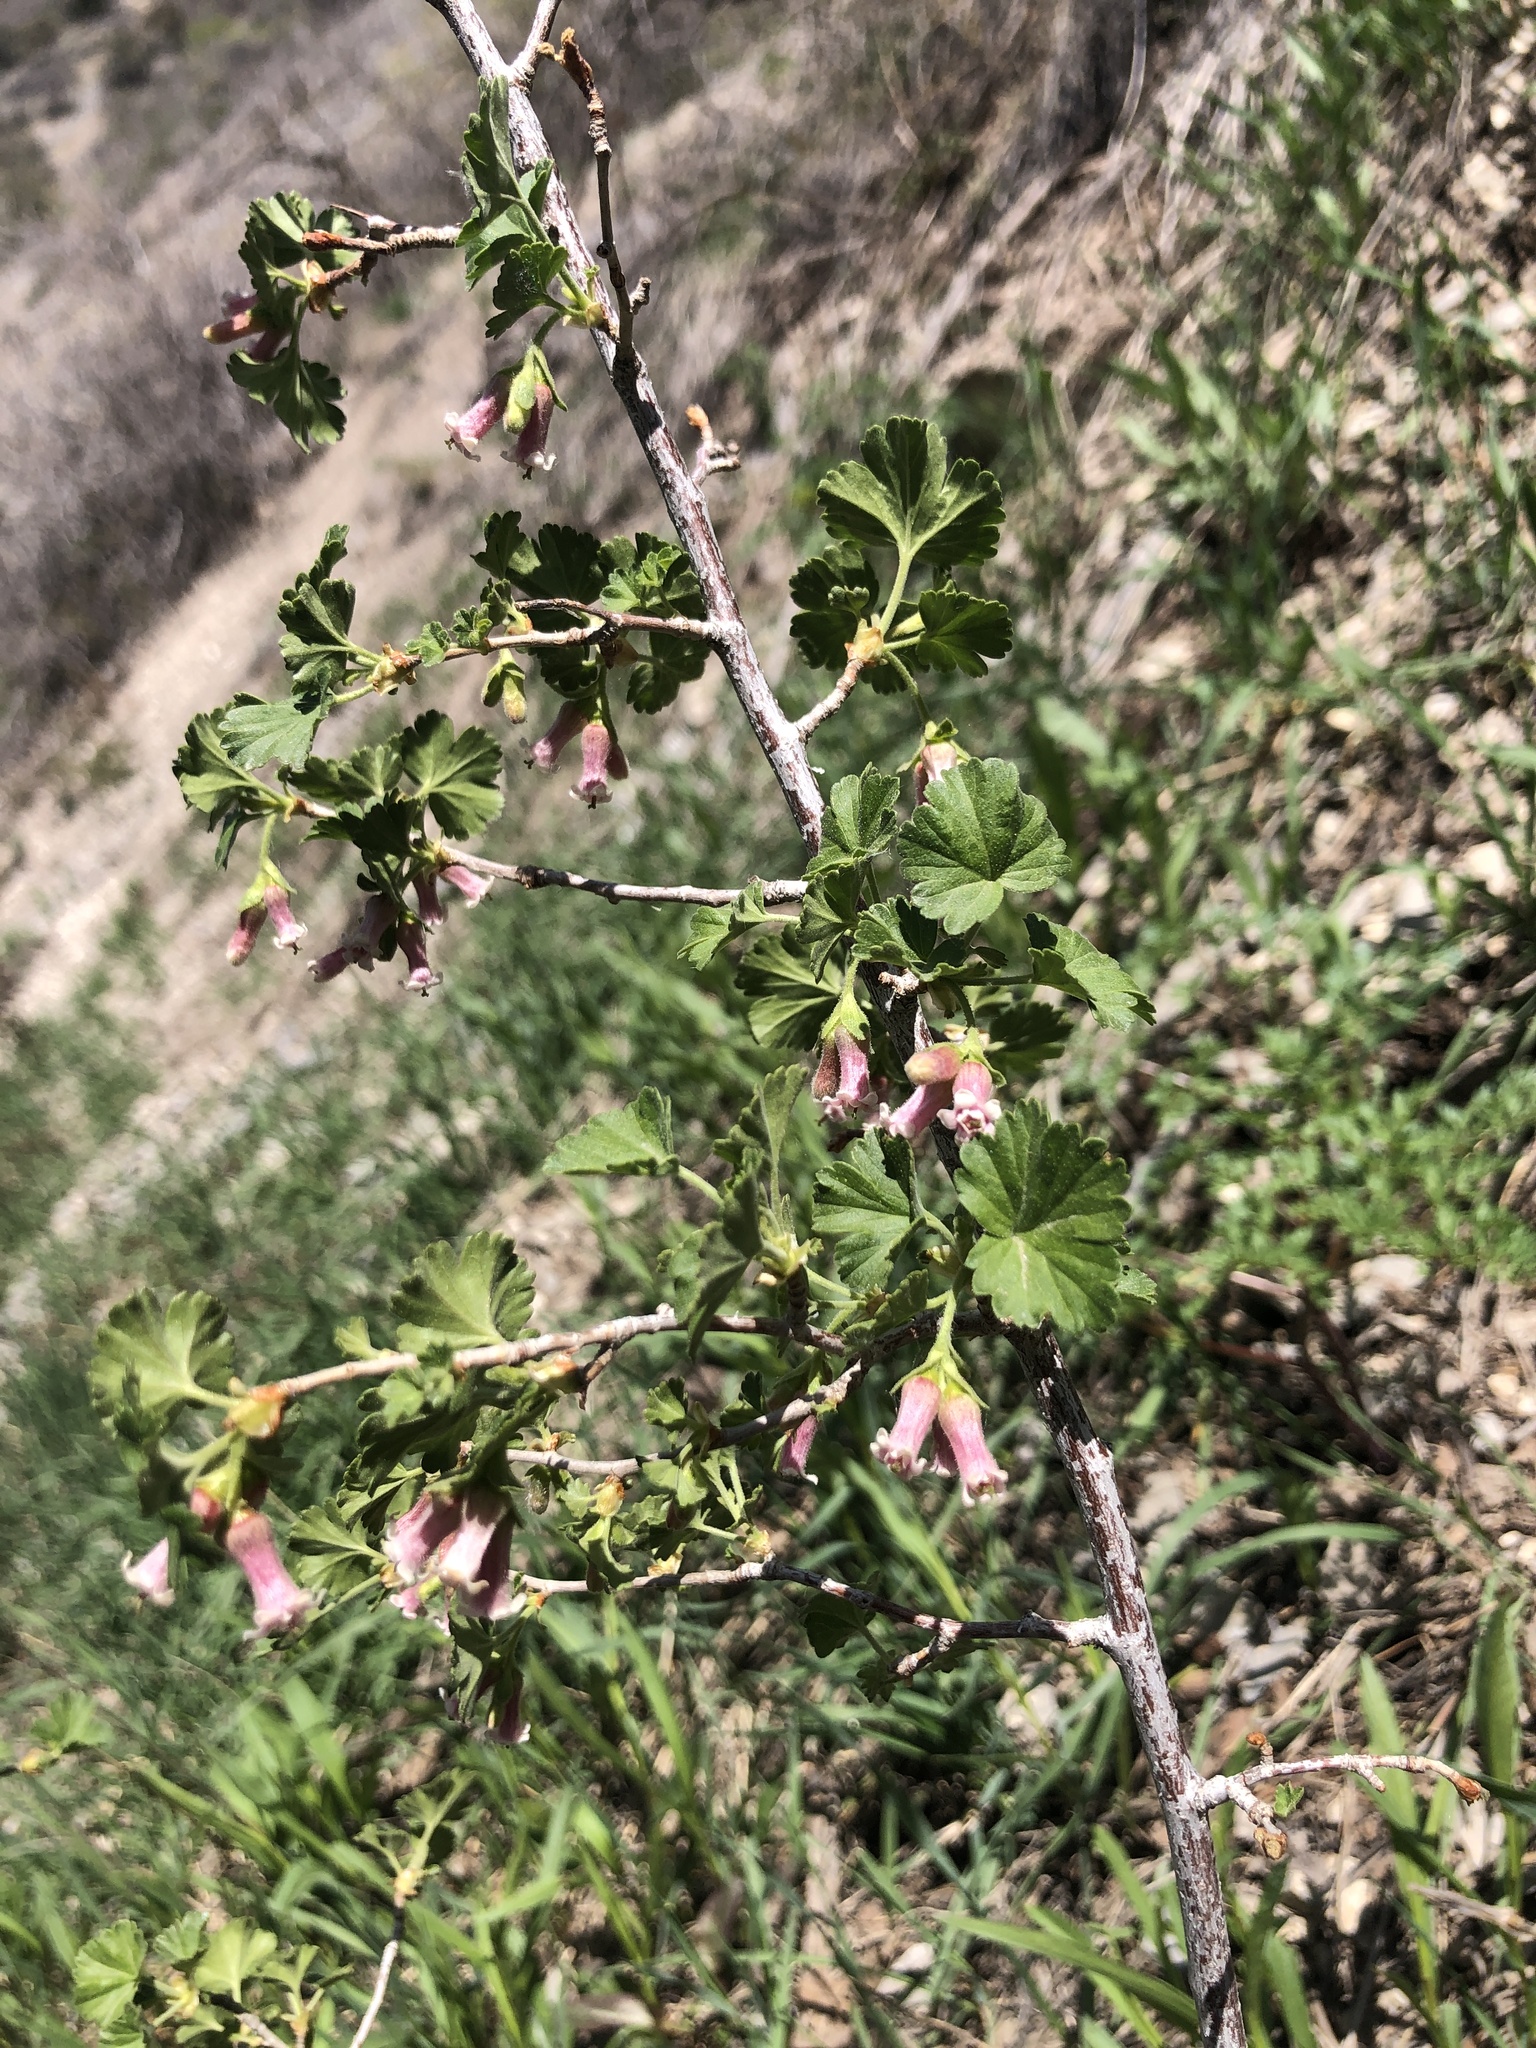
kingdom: Plantae
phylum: Tracheophyta
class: Magnoliopsida
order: Saxifragales
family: Grossulariaceae
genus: Ribes
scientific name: Ribes cereum
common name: Wax currant
